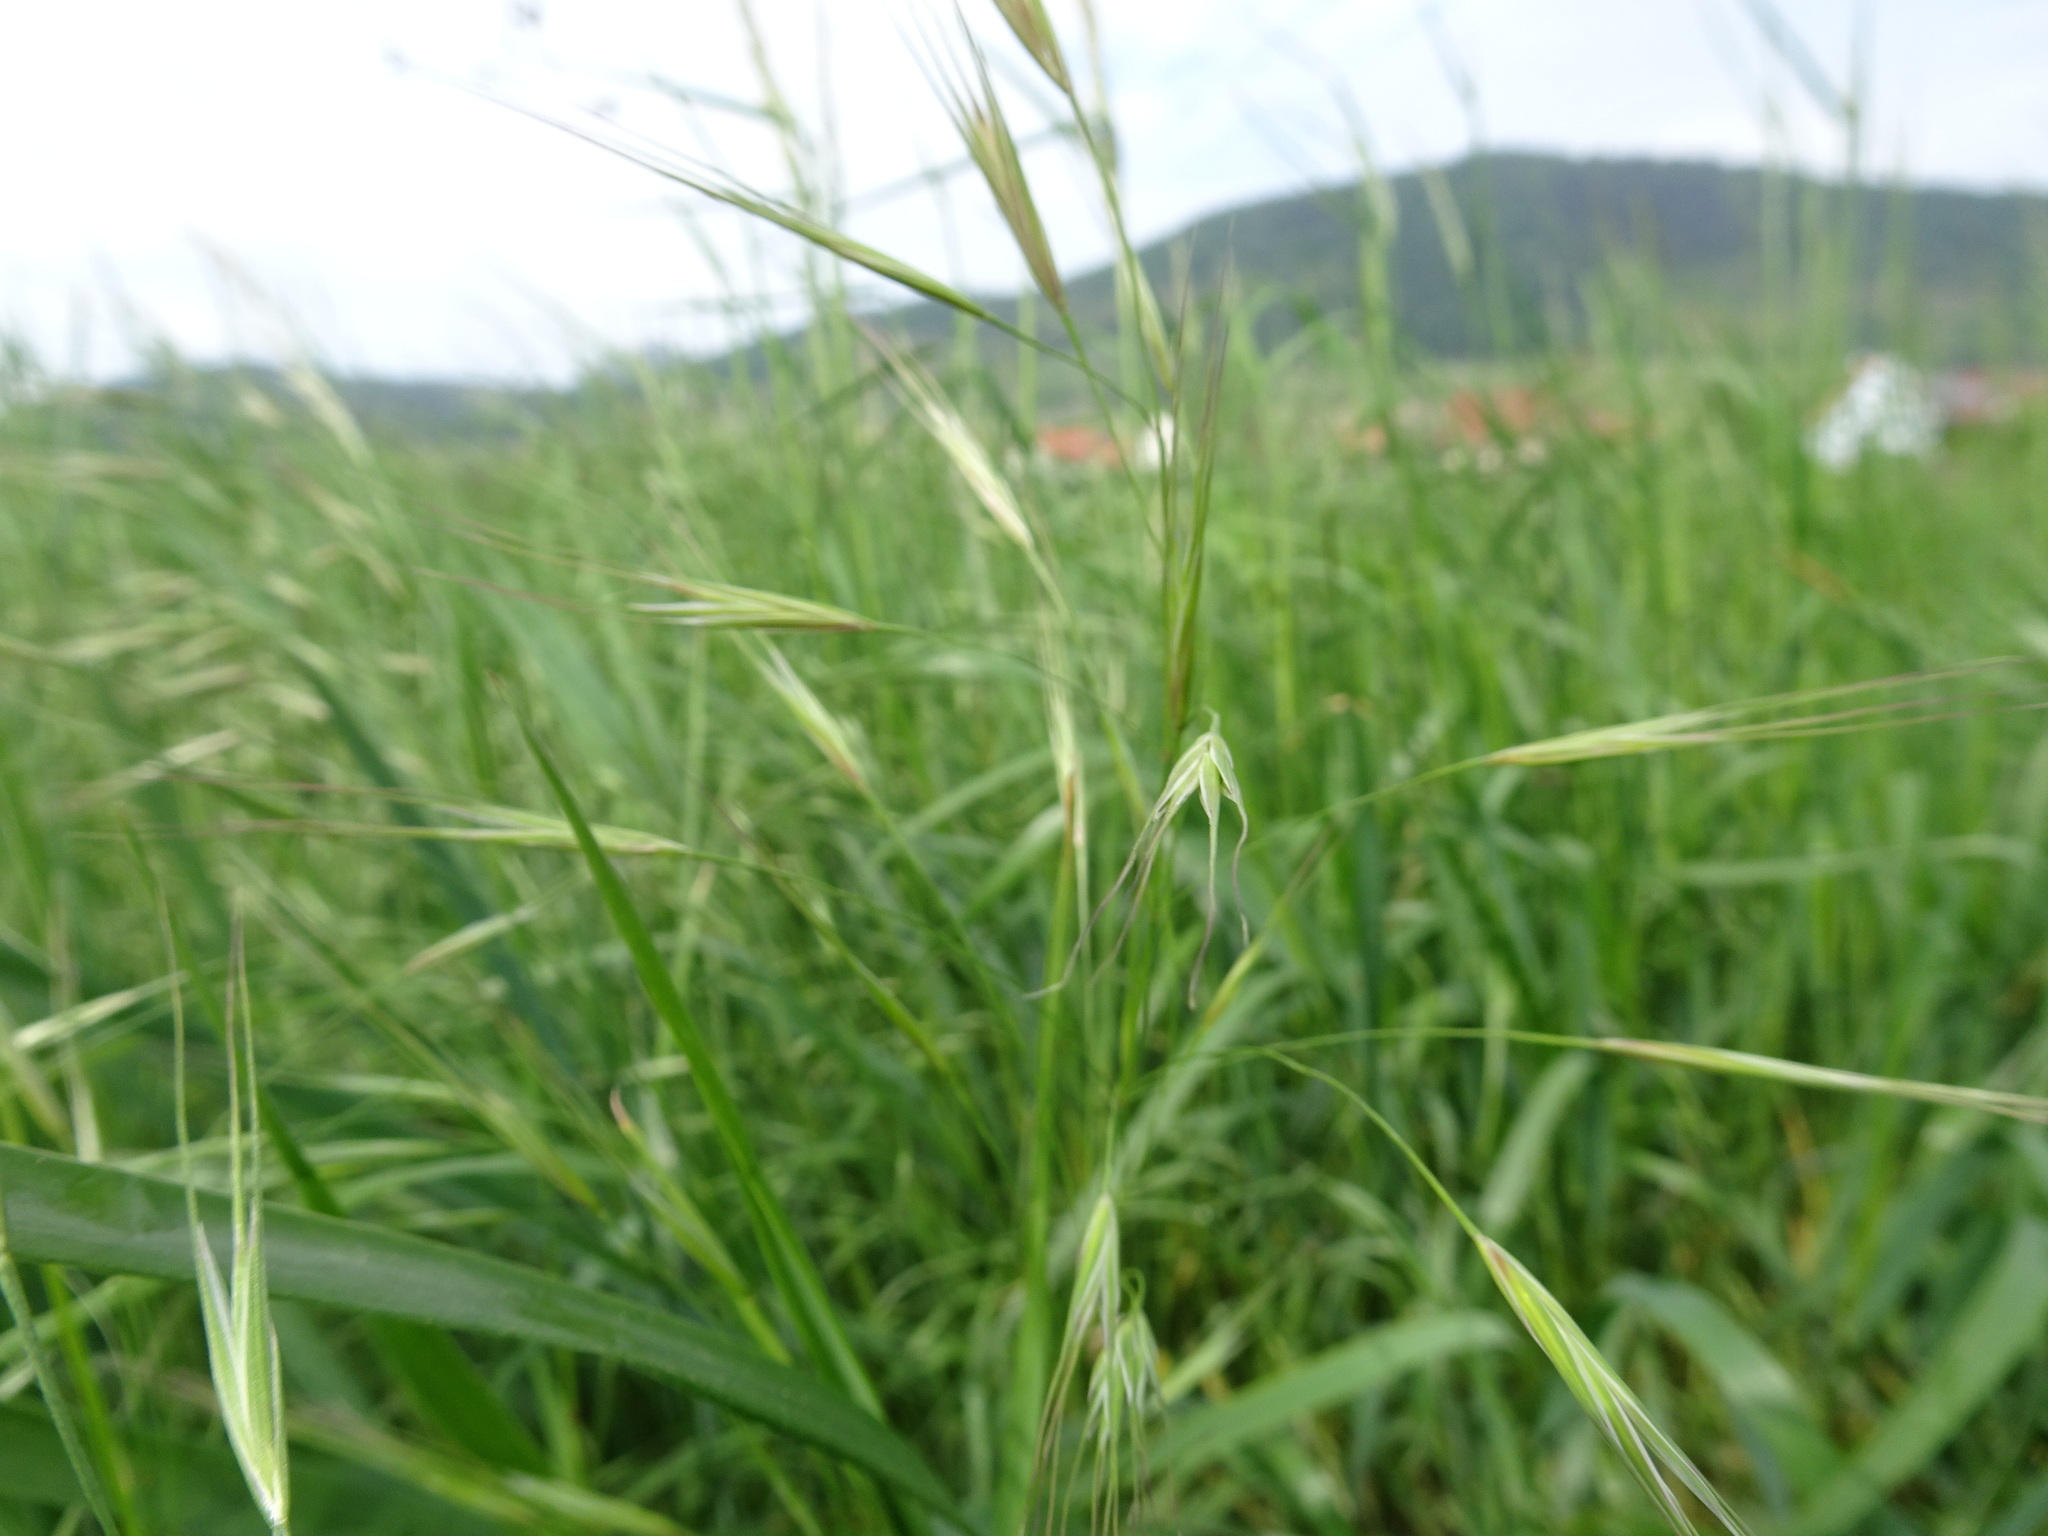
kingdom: Plantae
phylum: Tracheophyta
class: Liliopsida
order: Poales
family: Poaceae
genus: Bromus
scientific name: Bromus sterilis
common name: Poverty brome
